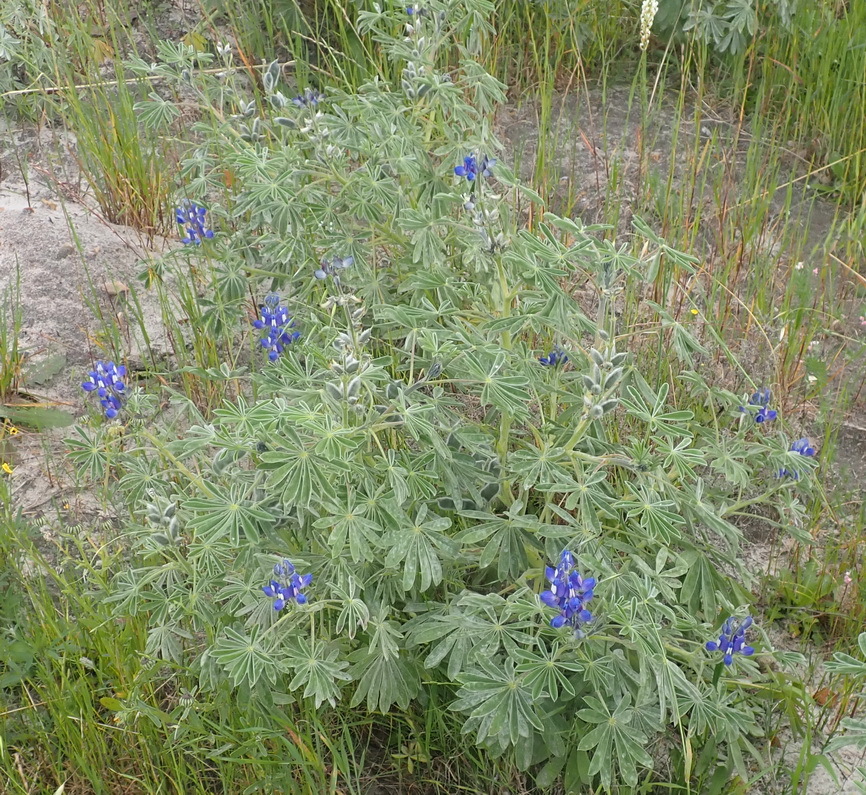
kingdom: Plantae
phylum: Tracheophyta
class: Magnoliopsida
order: Fabales
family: Fabaceae
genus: Lupinus
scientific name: Lupinus cosentinii
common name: Hairy blue lupin
